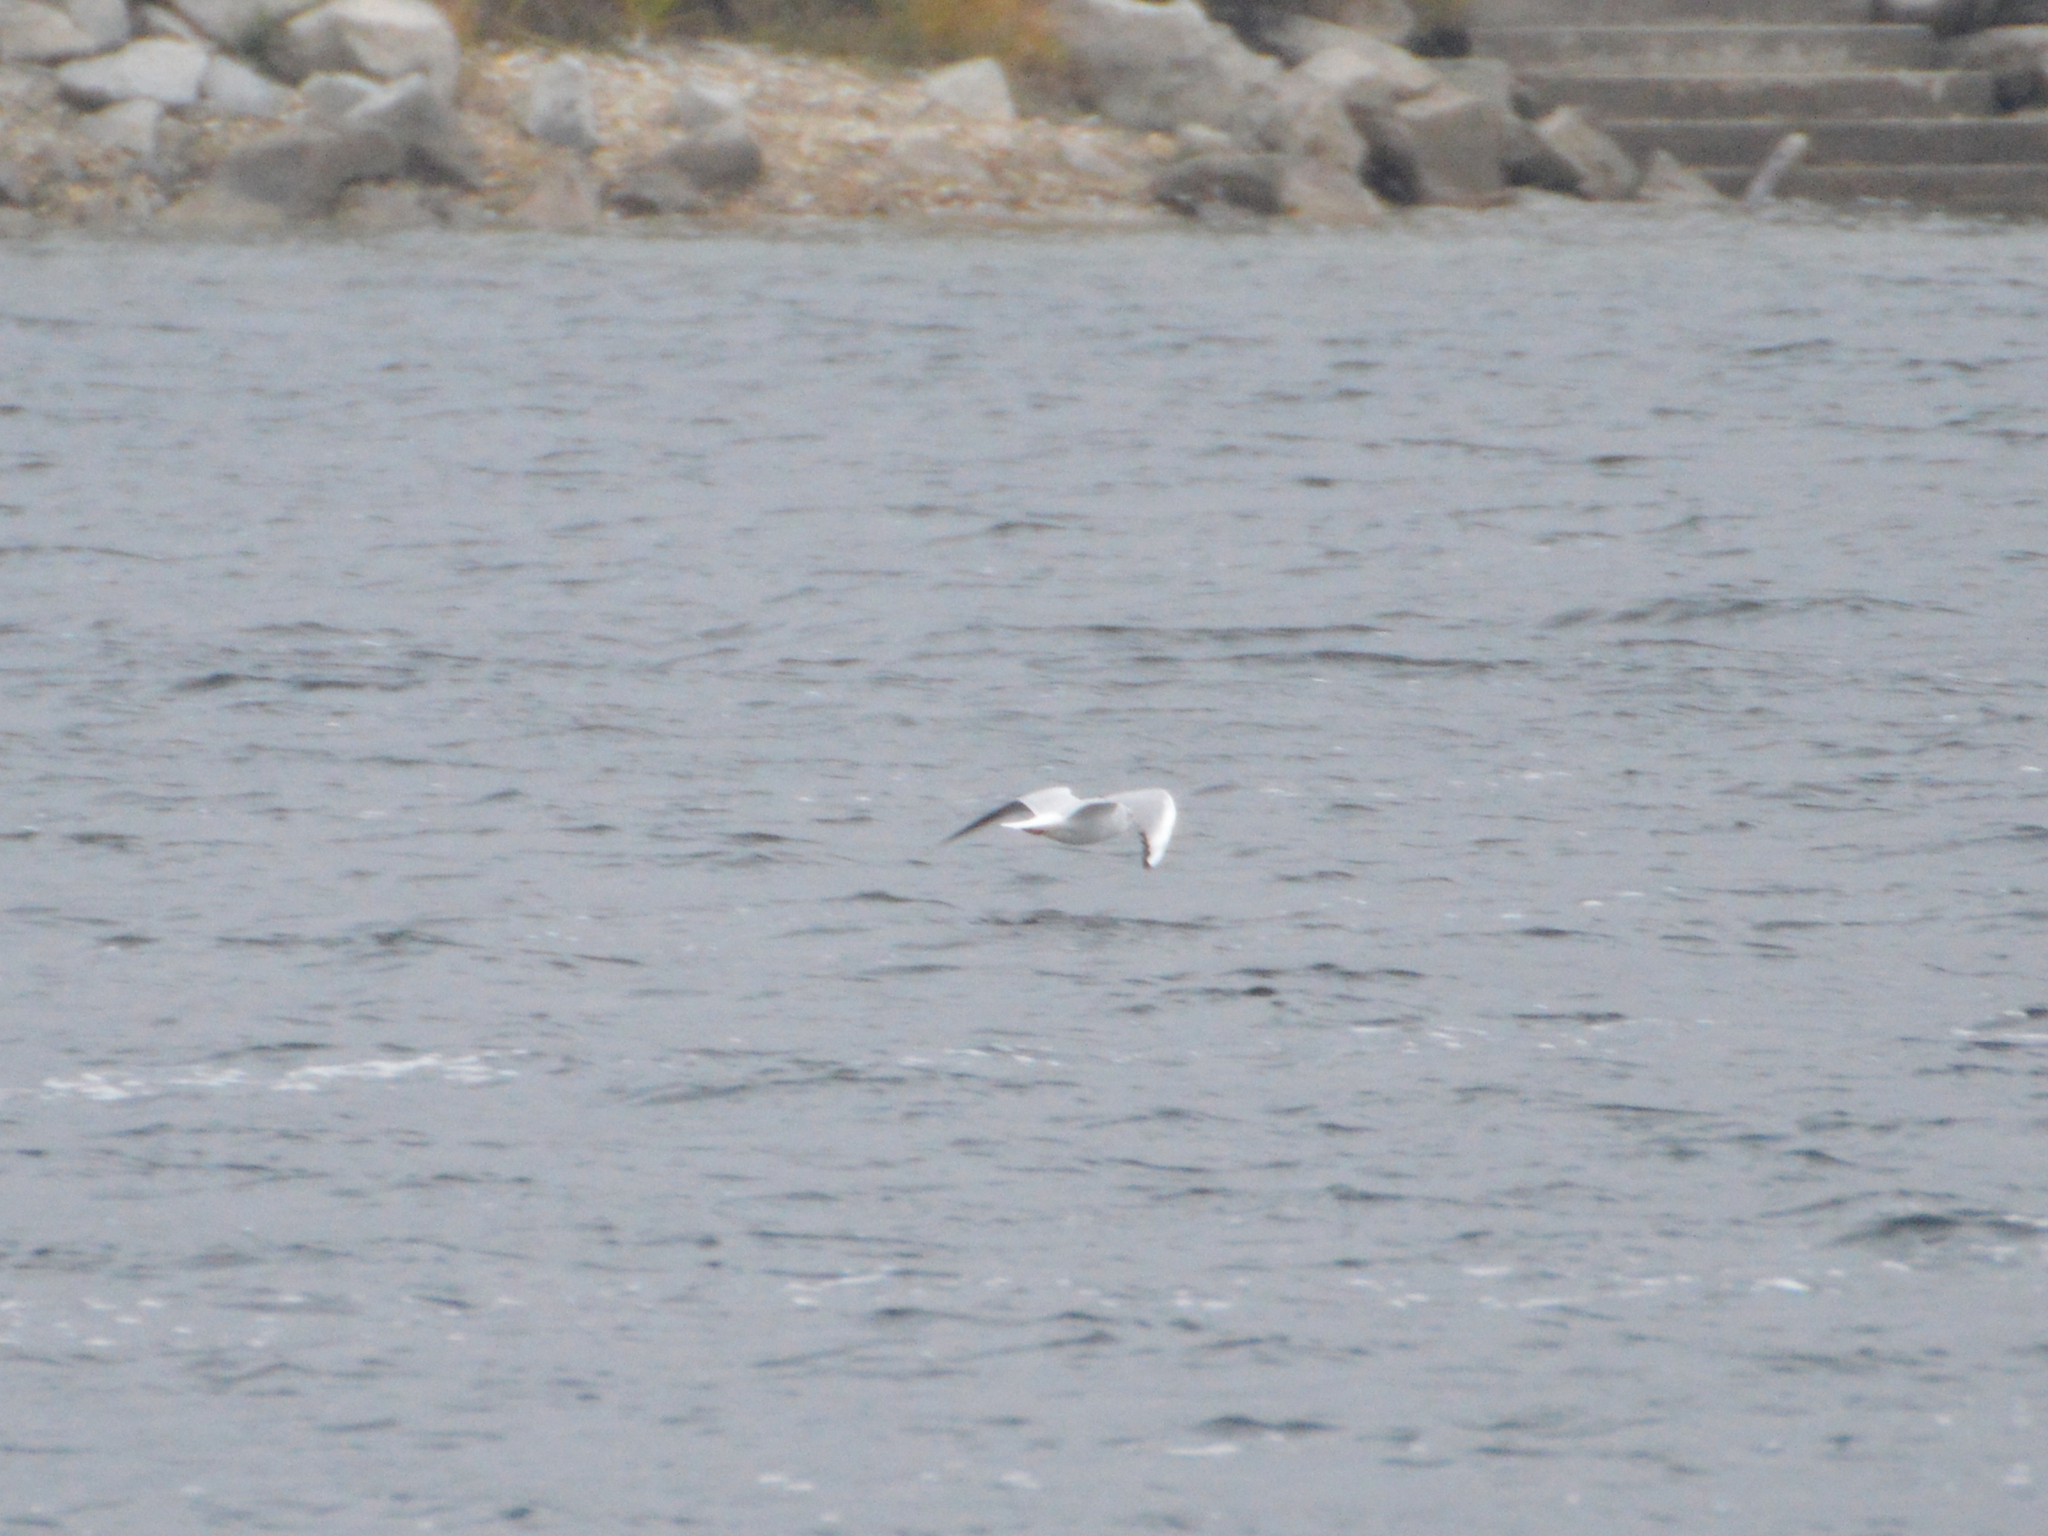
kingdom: Animalia
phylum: Chordata
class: Aves
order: Charadriiformes
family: Laridae
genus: Chroicocephalus
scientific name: Chroicocephalus ridibundus
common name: Black-headed gull
